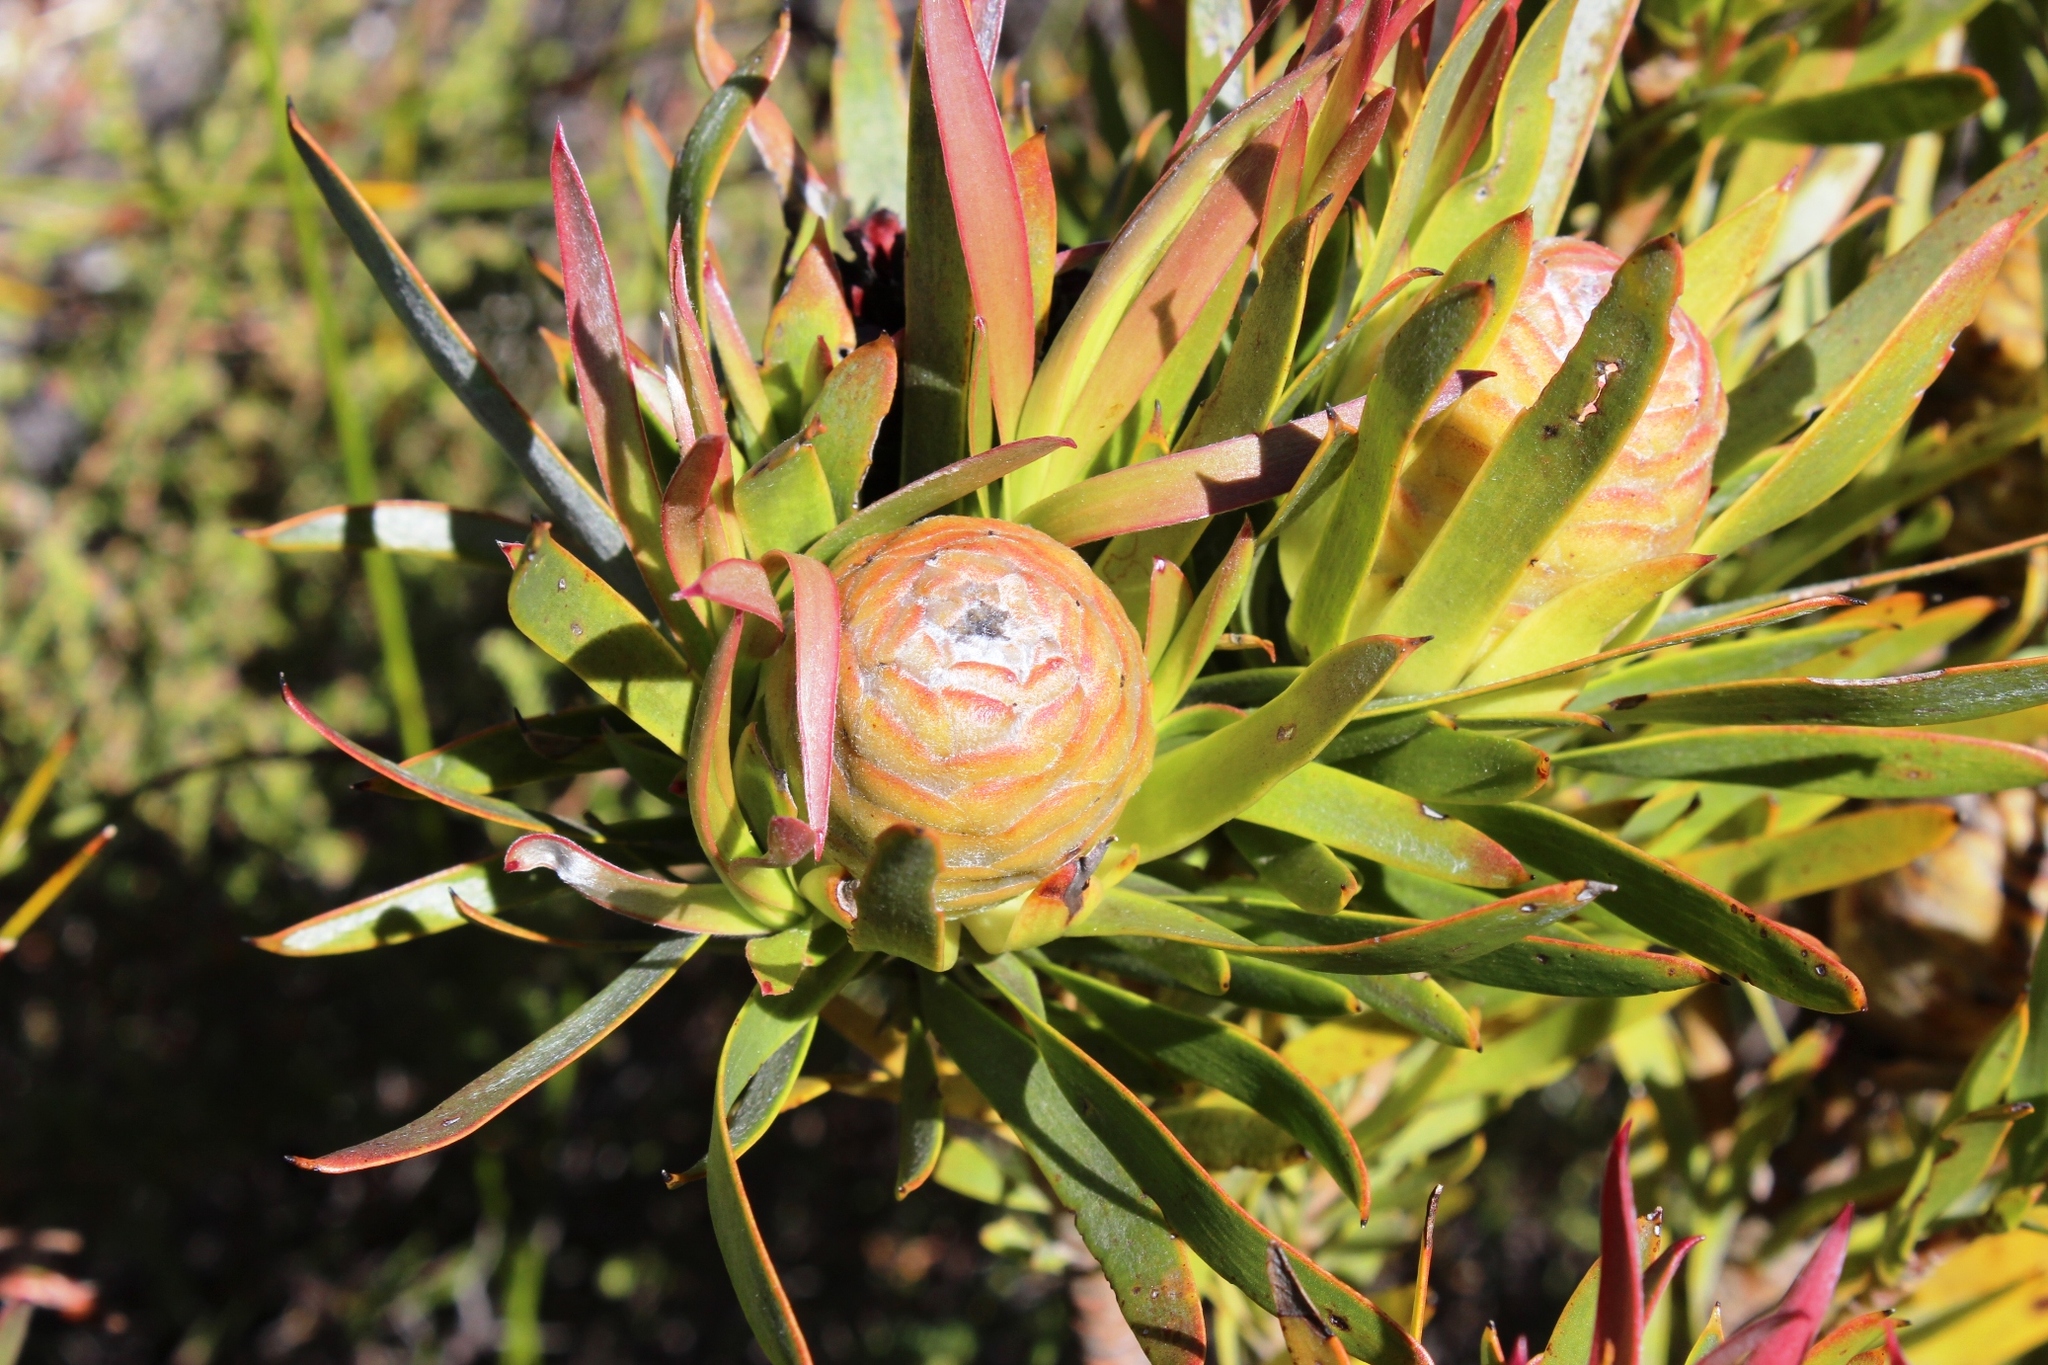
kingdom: Plantae
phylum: Tracheophyta
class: Magnoliopsida
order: Proteales
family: Proteaceae
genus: Leucadendron
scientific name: Leucadendron xanthoconus
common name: Sickle-leaf conebush
